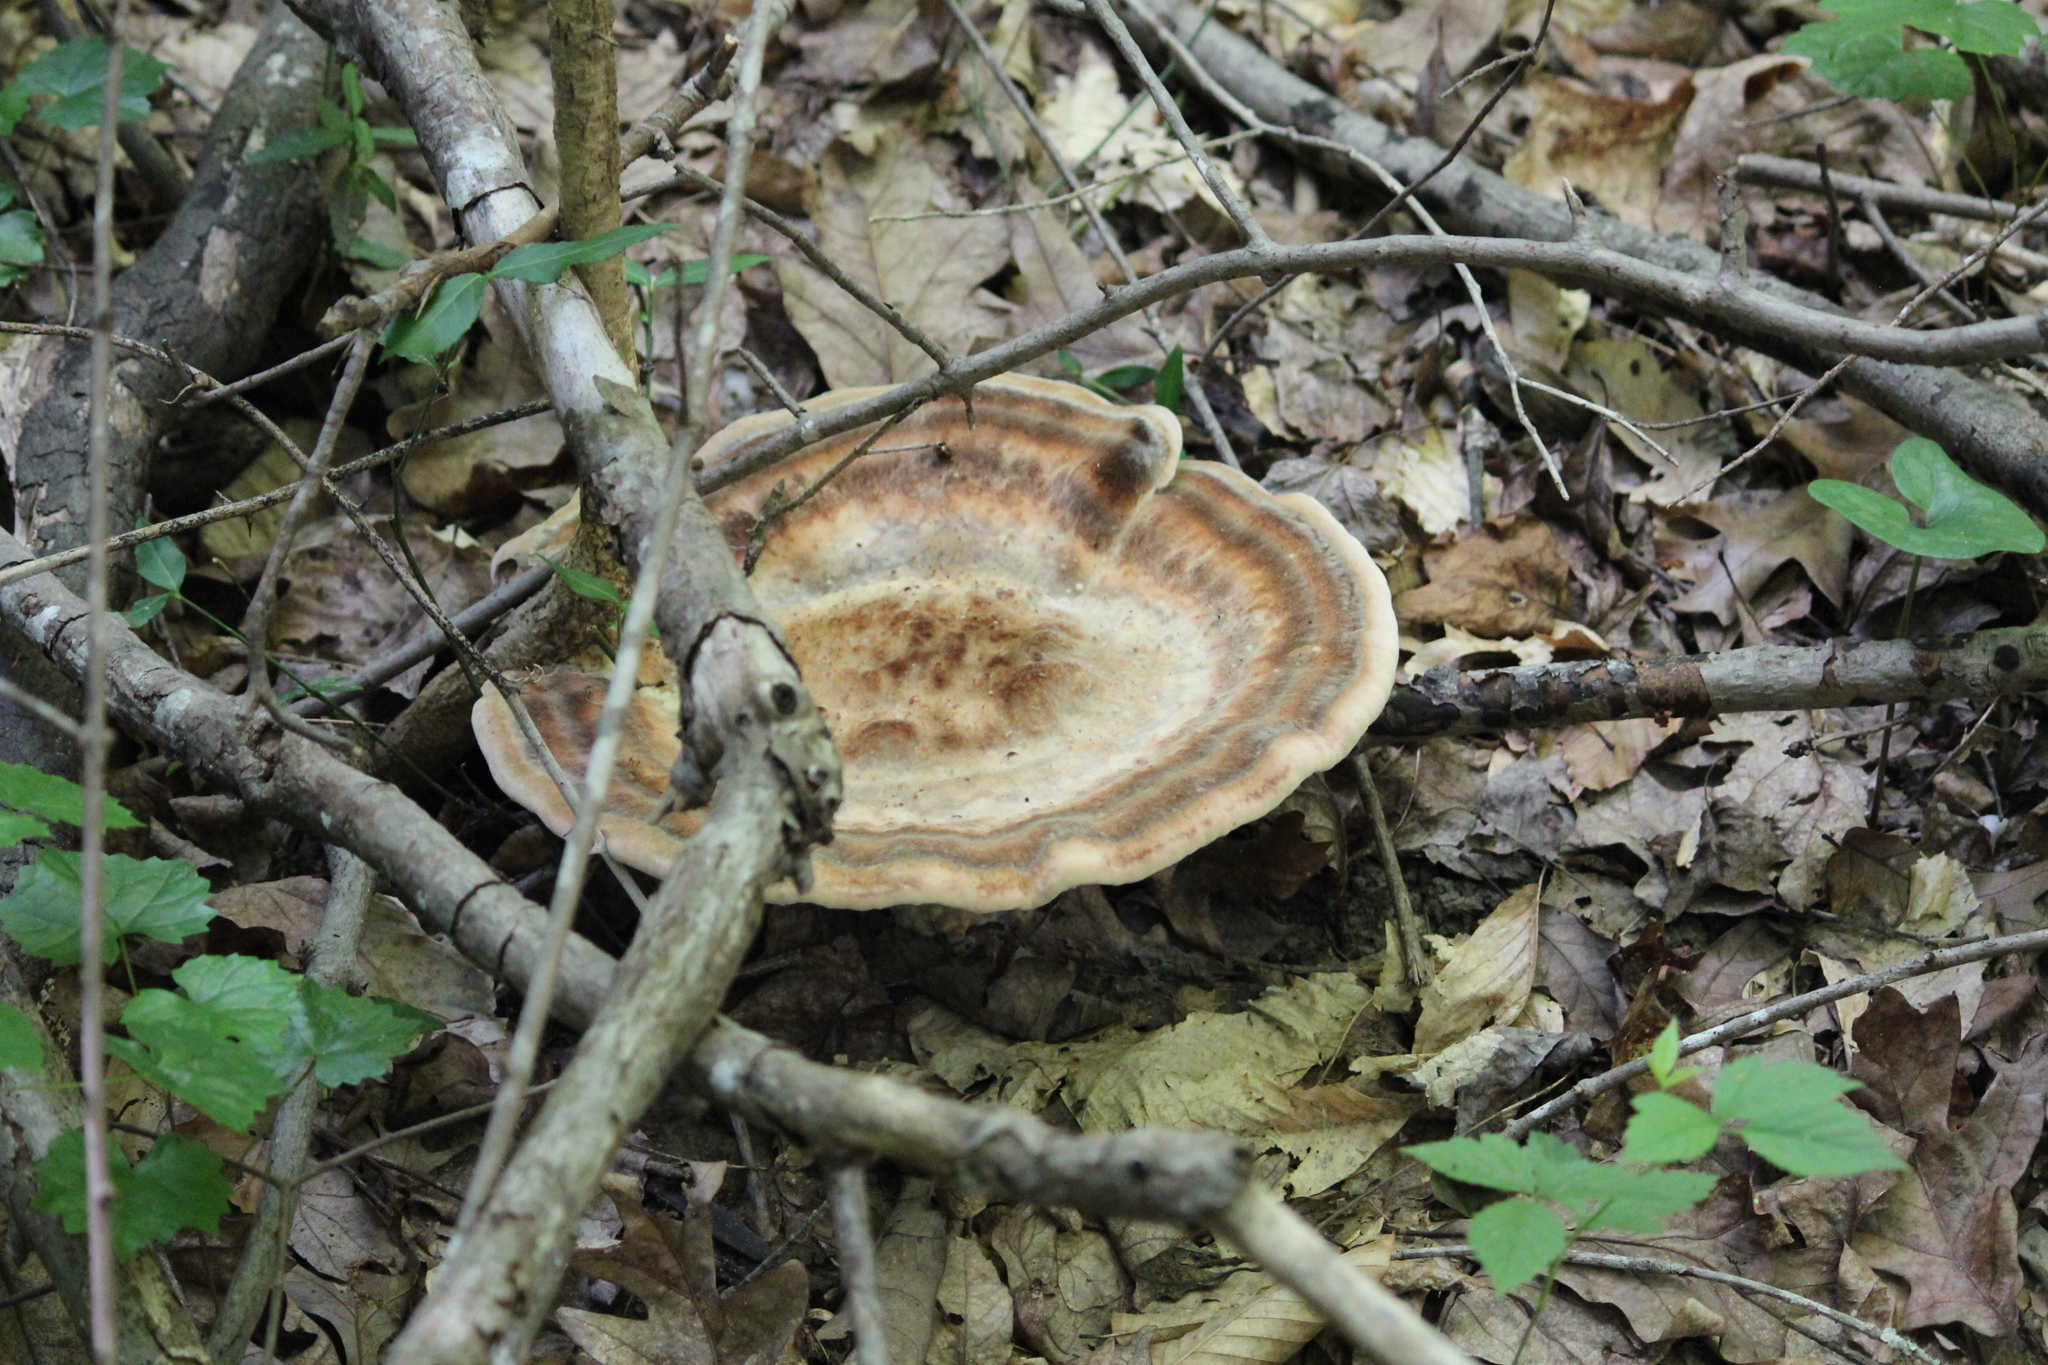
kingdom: Fungi
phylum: Basidiomycota
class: Agaricomycetes
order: Polyporales
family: Laetiporaceae
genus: Berkcurtia
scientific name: Berkcurtia persicina
